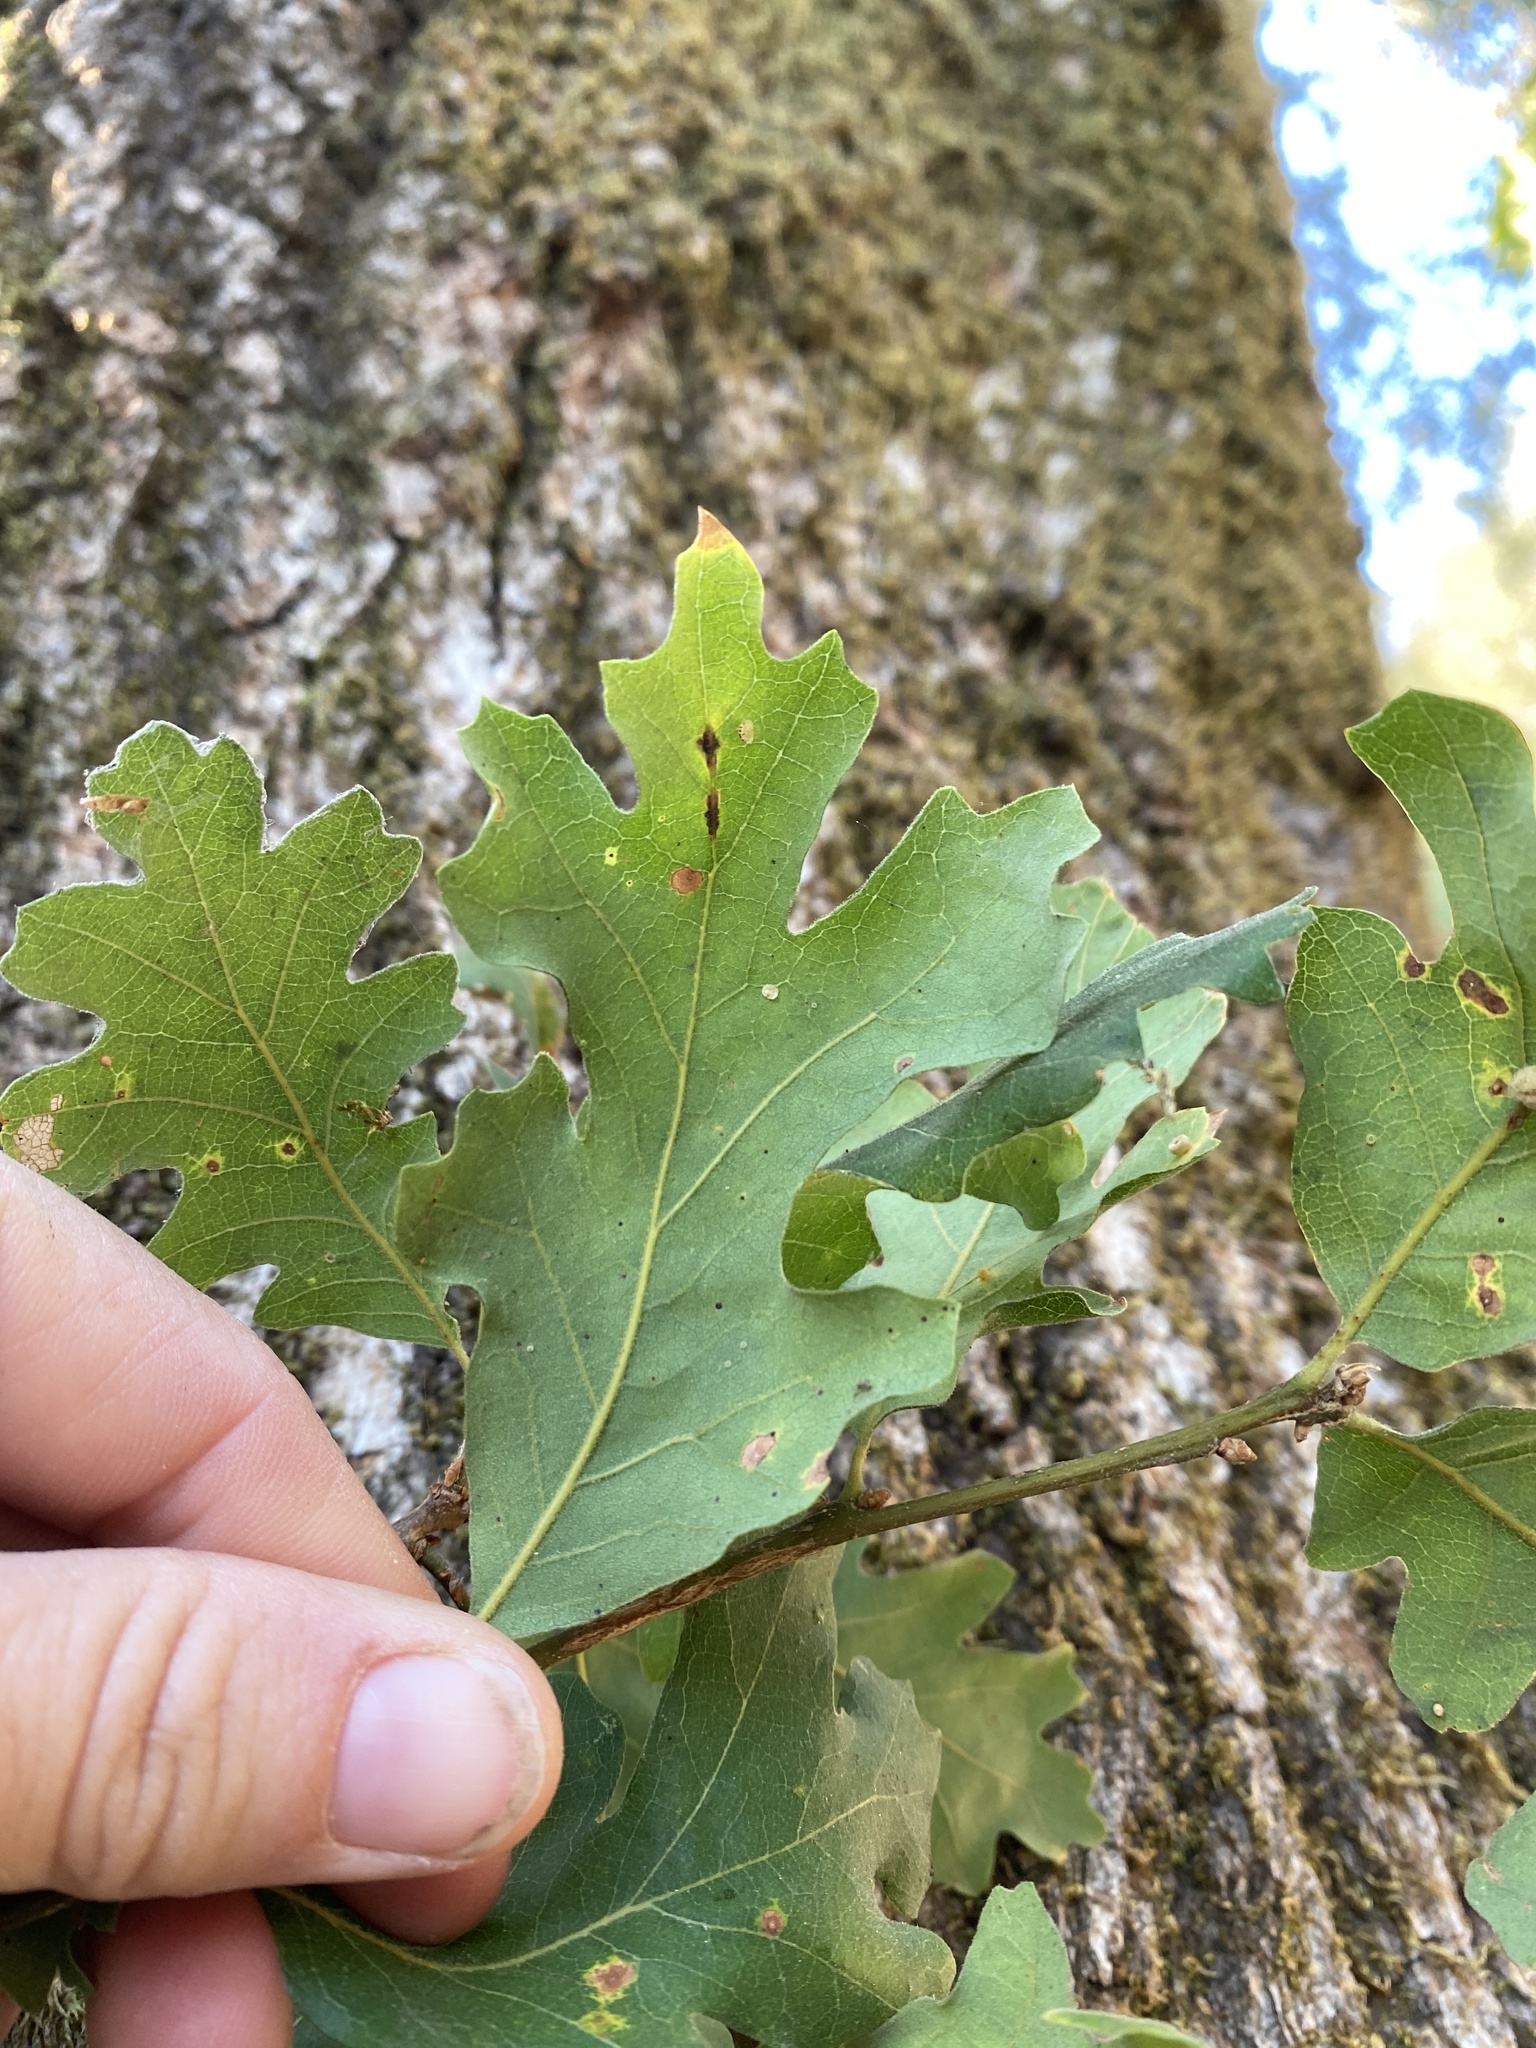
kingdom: Plantae
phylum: Tracheophyta
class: Magnoliopsida
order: Fagales
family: Fagaceae
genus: Quercus
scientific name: Quercus lobata
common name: Valley oak
